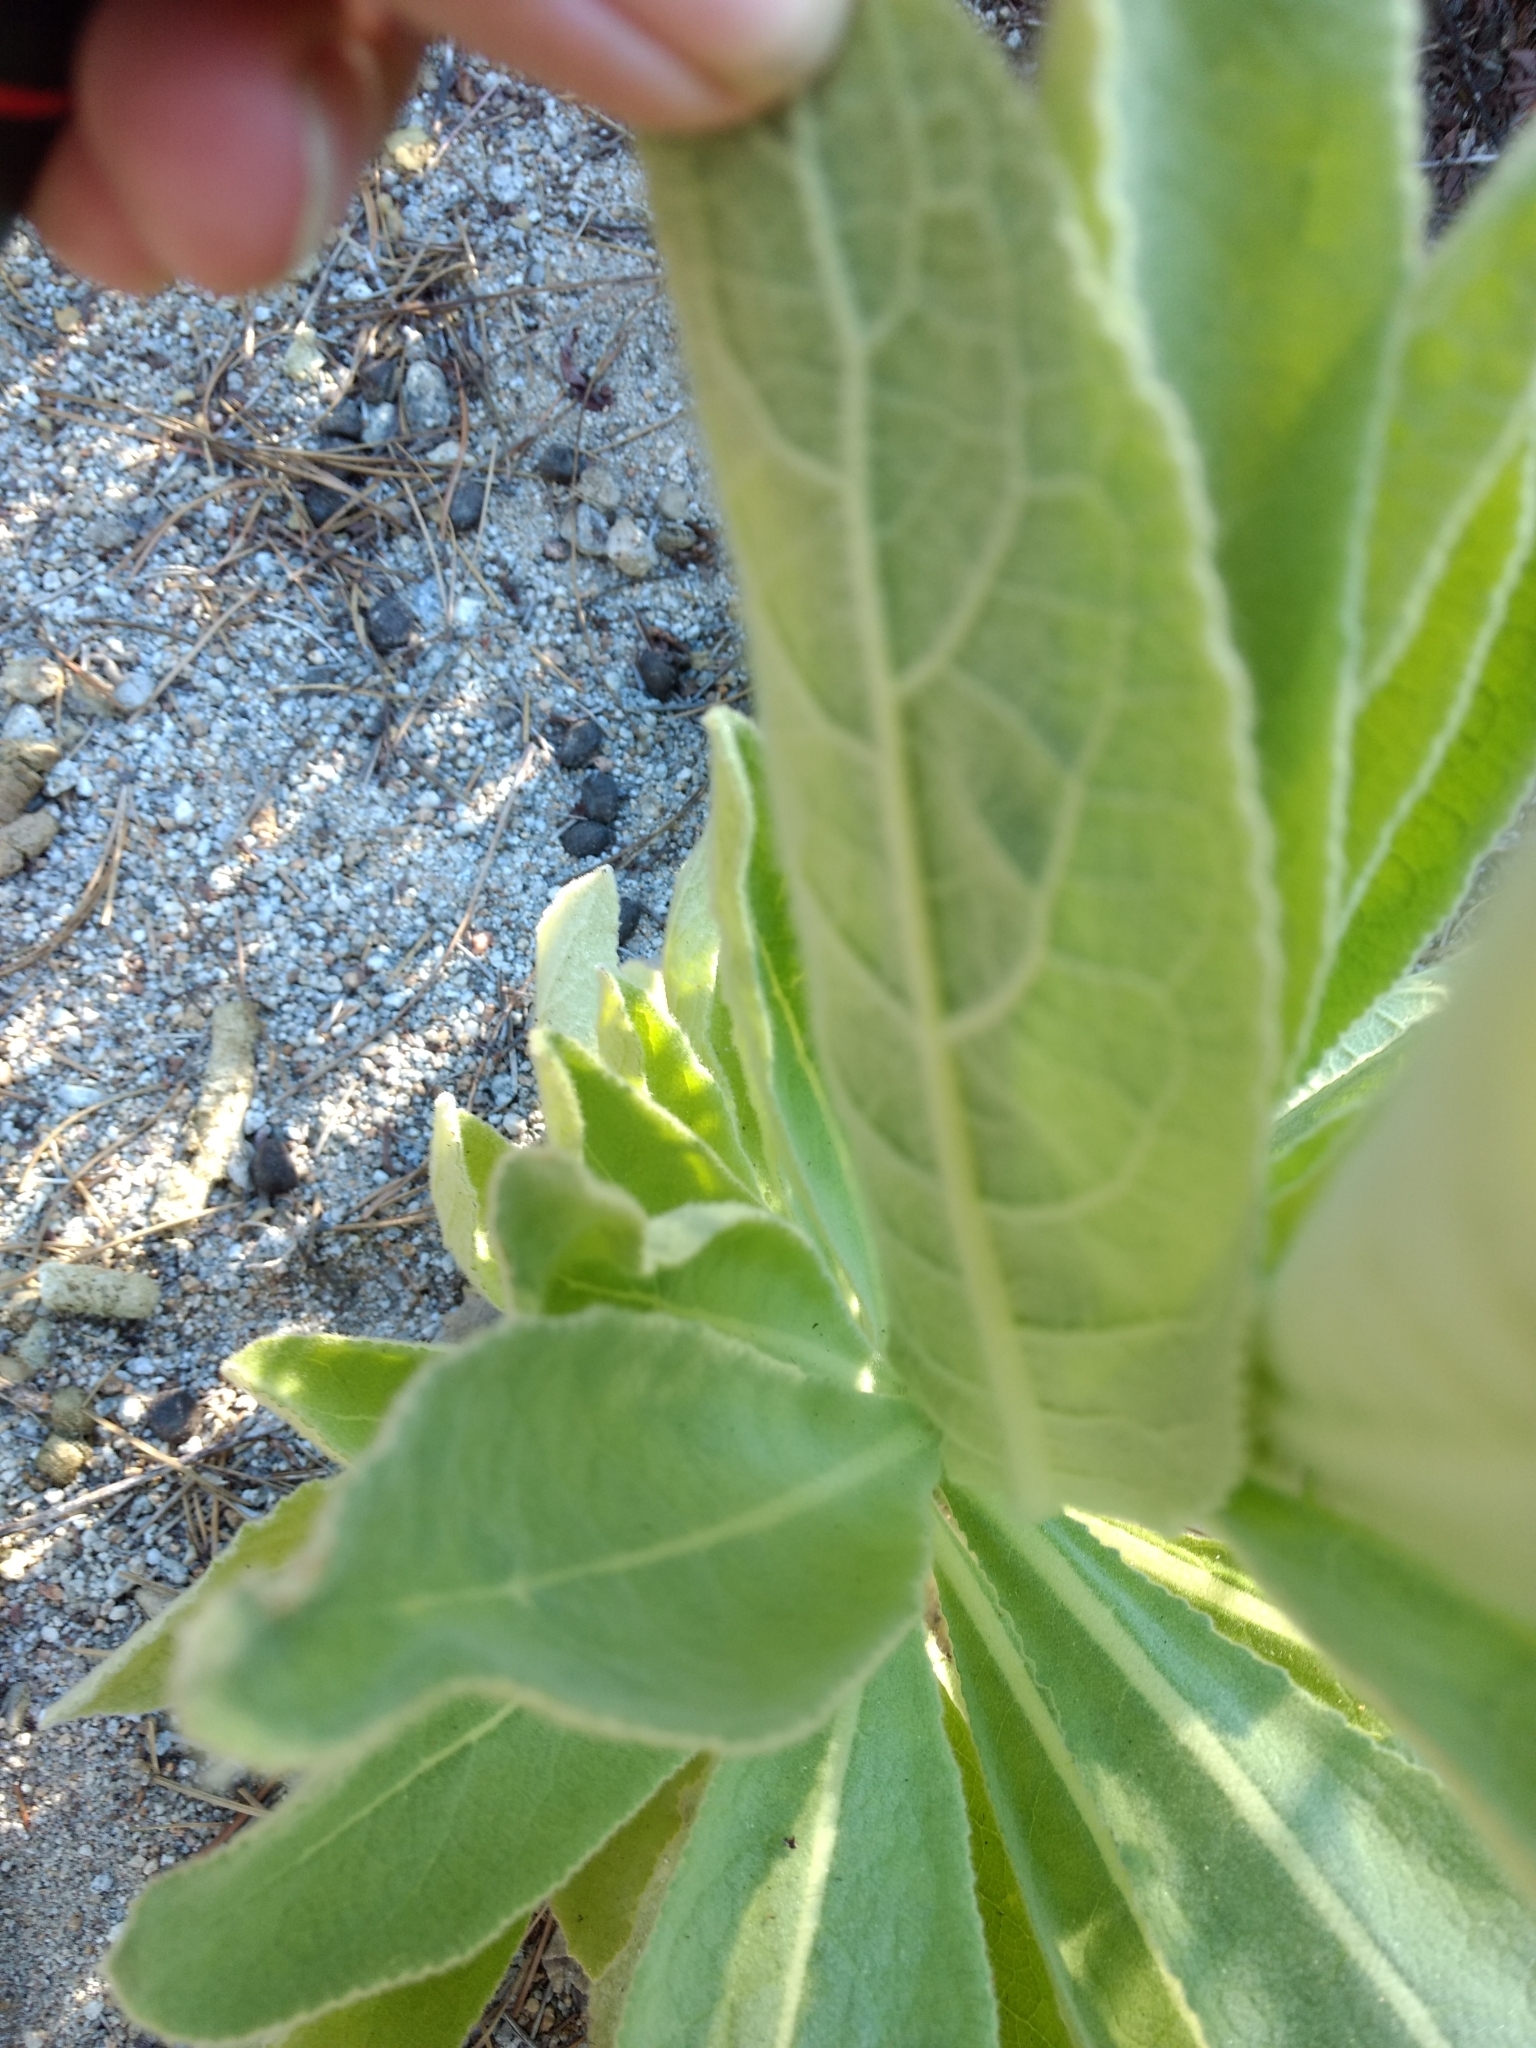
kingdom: Plantae
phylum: Tracheophyta
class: Magnoliopsida
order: Lamiales
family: Scrophulariaceae
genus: Verbascum
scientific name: Verbascum thapsus
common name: Common mullein
